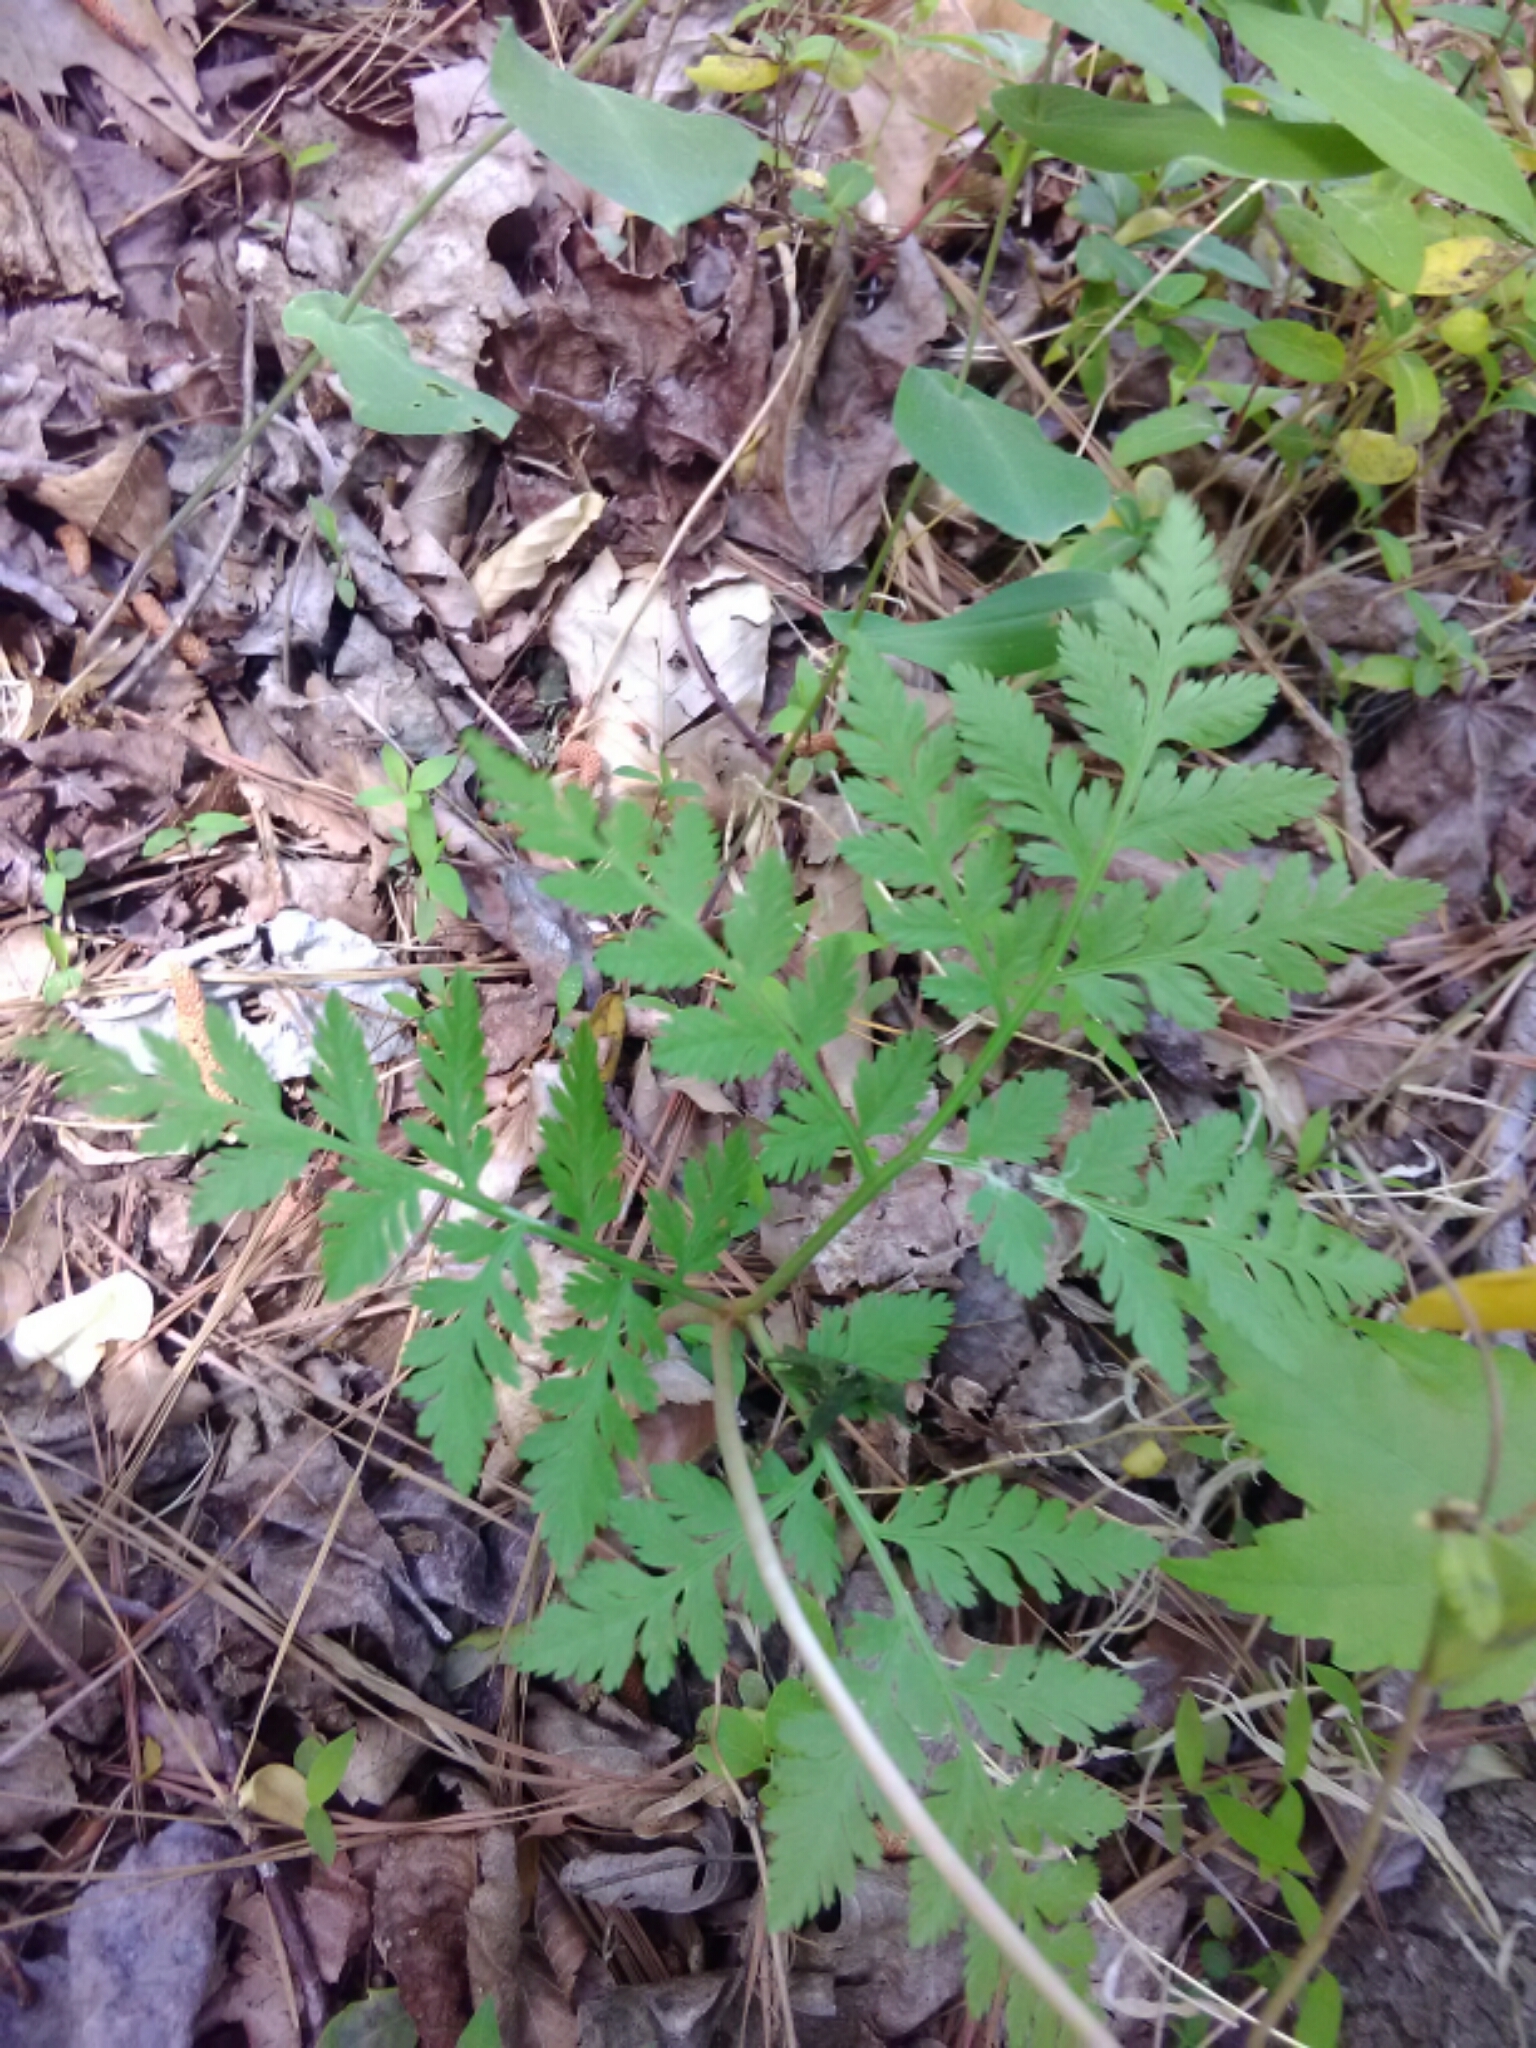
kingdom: Plantae
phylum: Tracheophyta
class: Polypodiopsida
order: Ophioglossales
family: Ophioglossaceae
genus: Botrypus
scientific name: Botrypus virginianus
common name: Common grapefern
